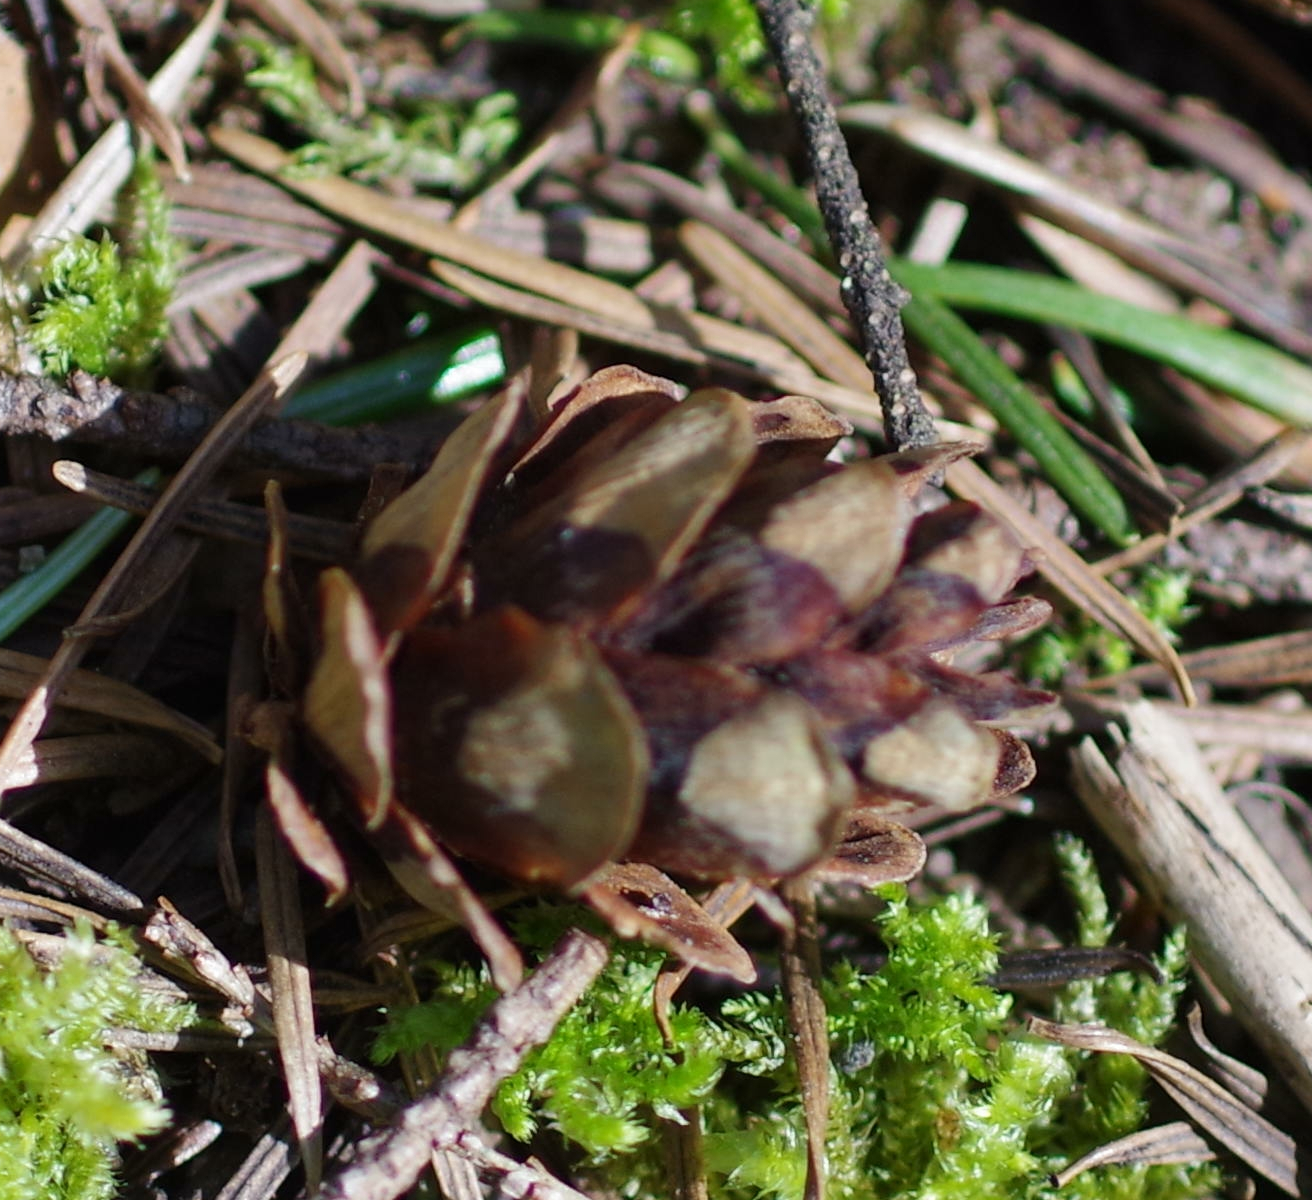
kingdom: Plantae
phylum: Tracheophyta
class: Pinopsida
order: Pinales
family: Pinaceae
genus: Tsuga
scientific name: Tsuga heterophylla
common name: Western hemlock
